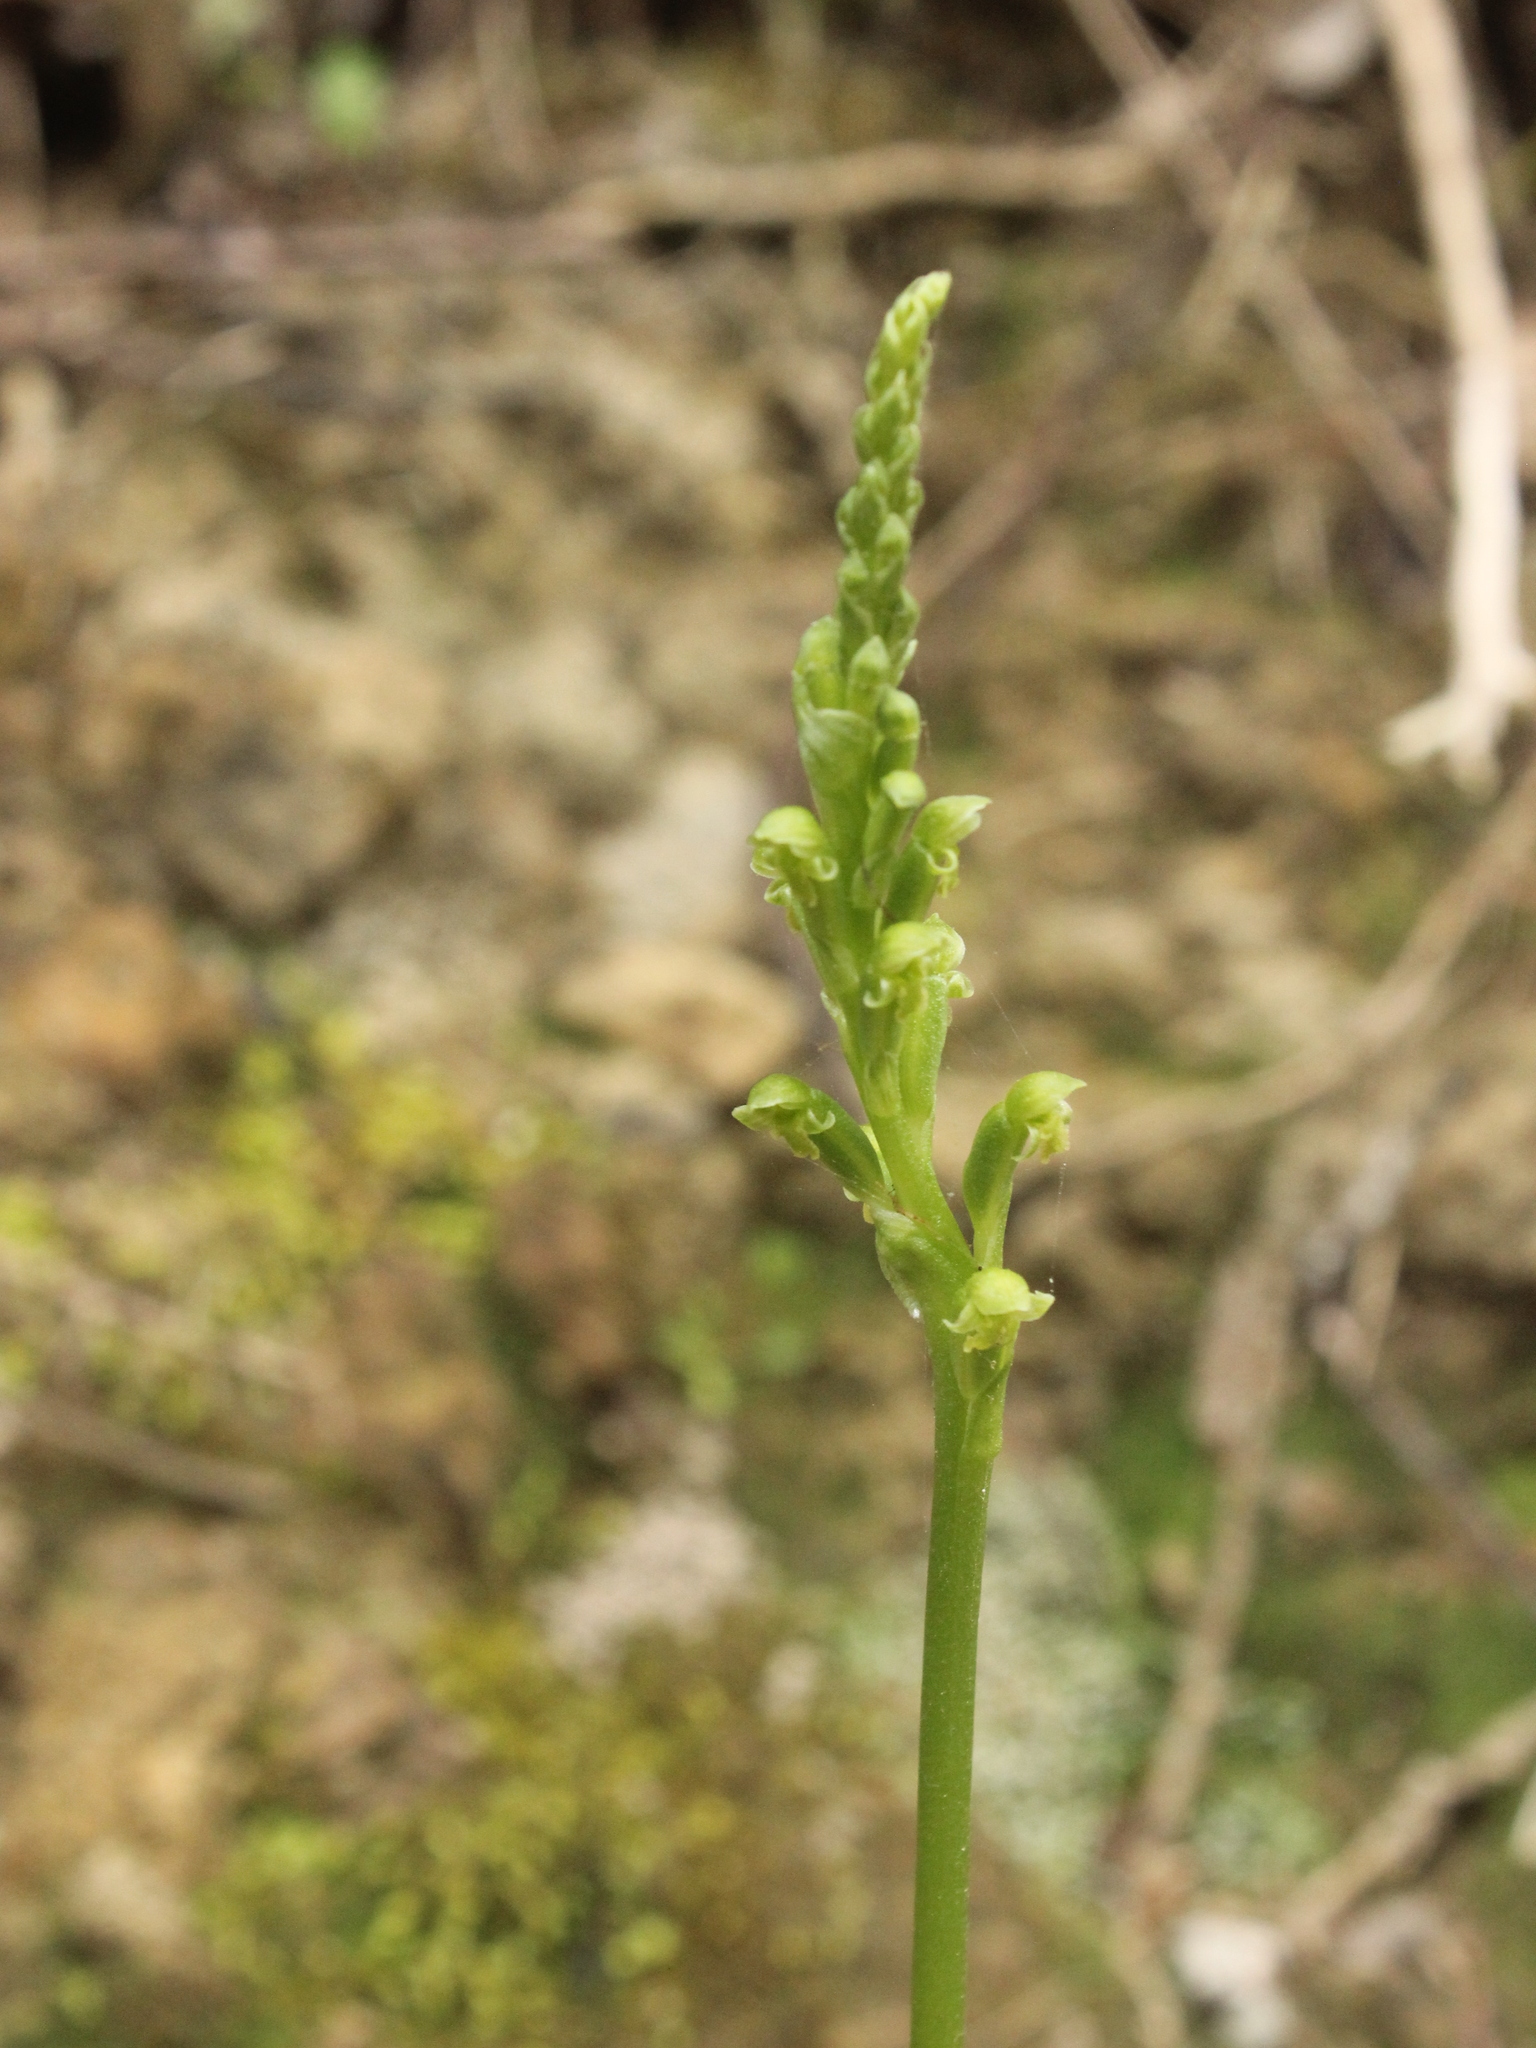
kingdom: Plantae
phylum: Tracheophyta
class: Liliopsida
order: Asparagales
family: Orchidaceae
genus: Microtis
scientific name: Microtis unifolia
